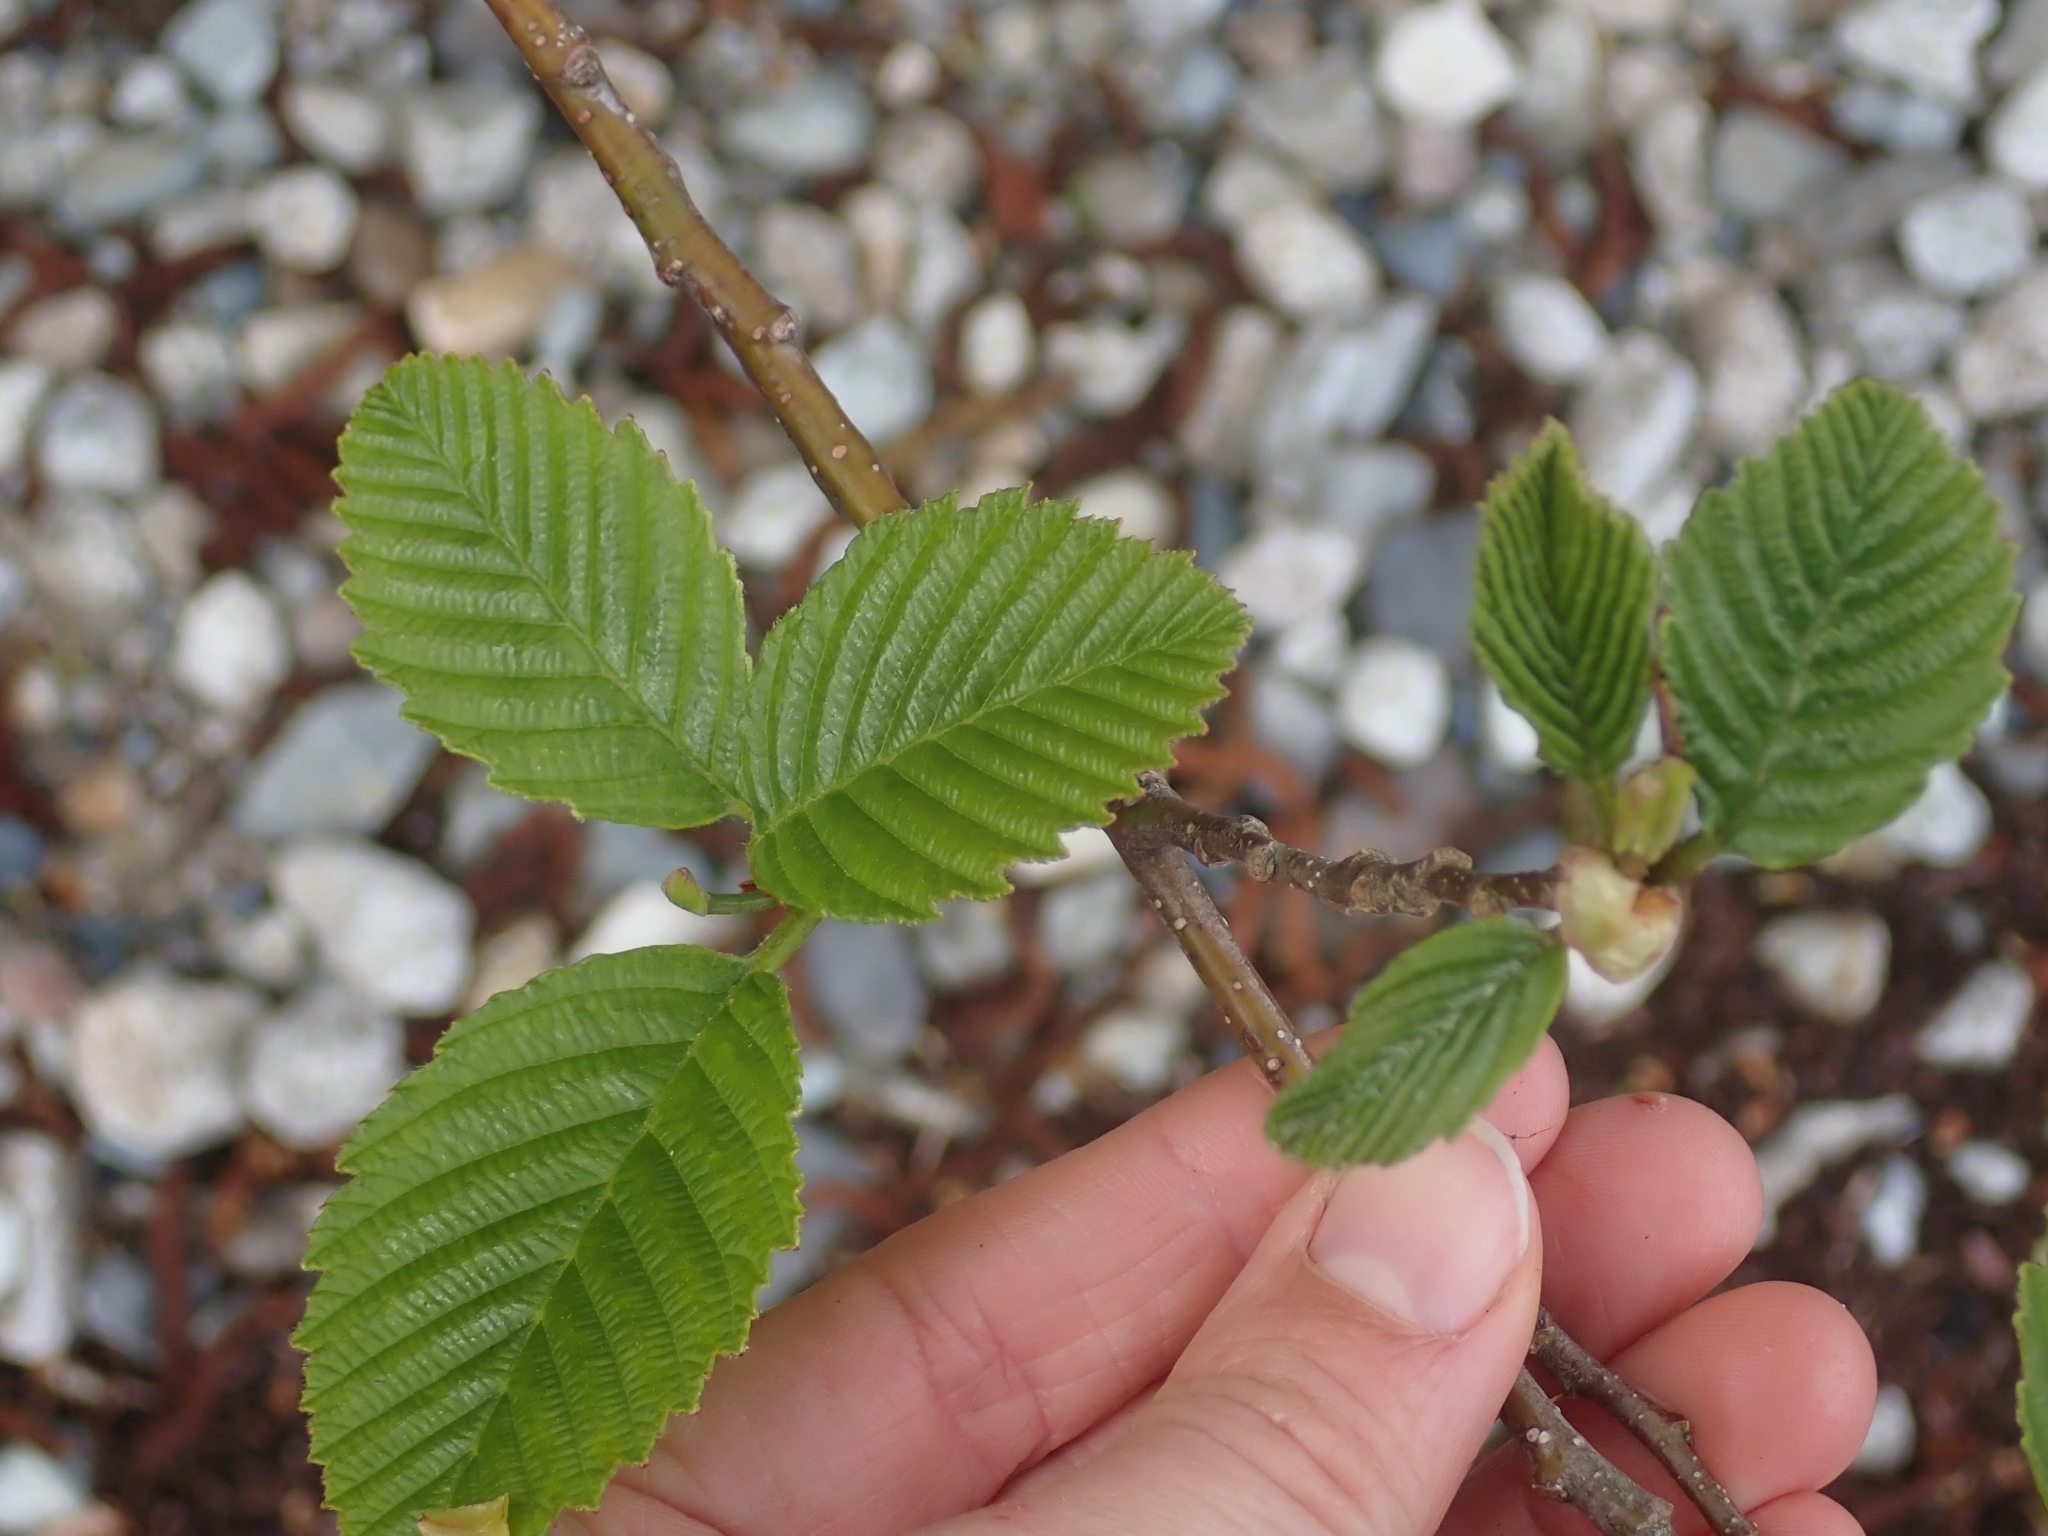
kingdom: Plantae
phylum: Tracheophyta
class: Magnoliopsida
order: Fagales
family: Betulaceae
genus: Alnus
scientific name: Alnus rubra
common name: Red alder
